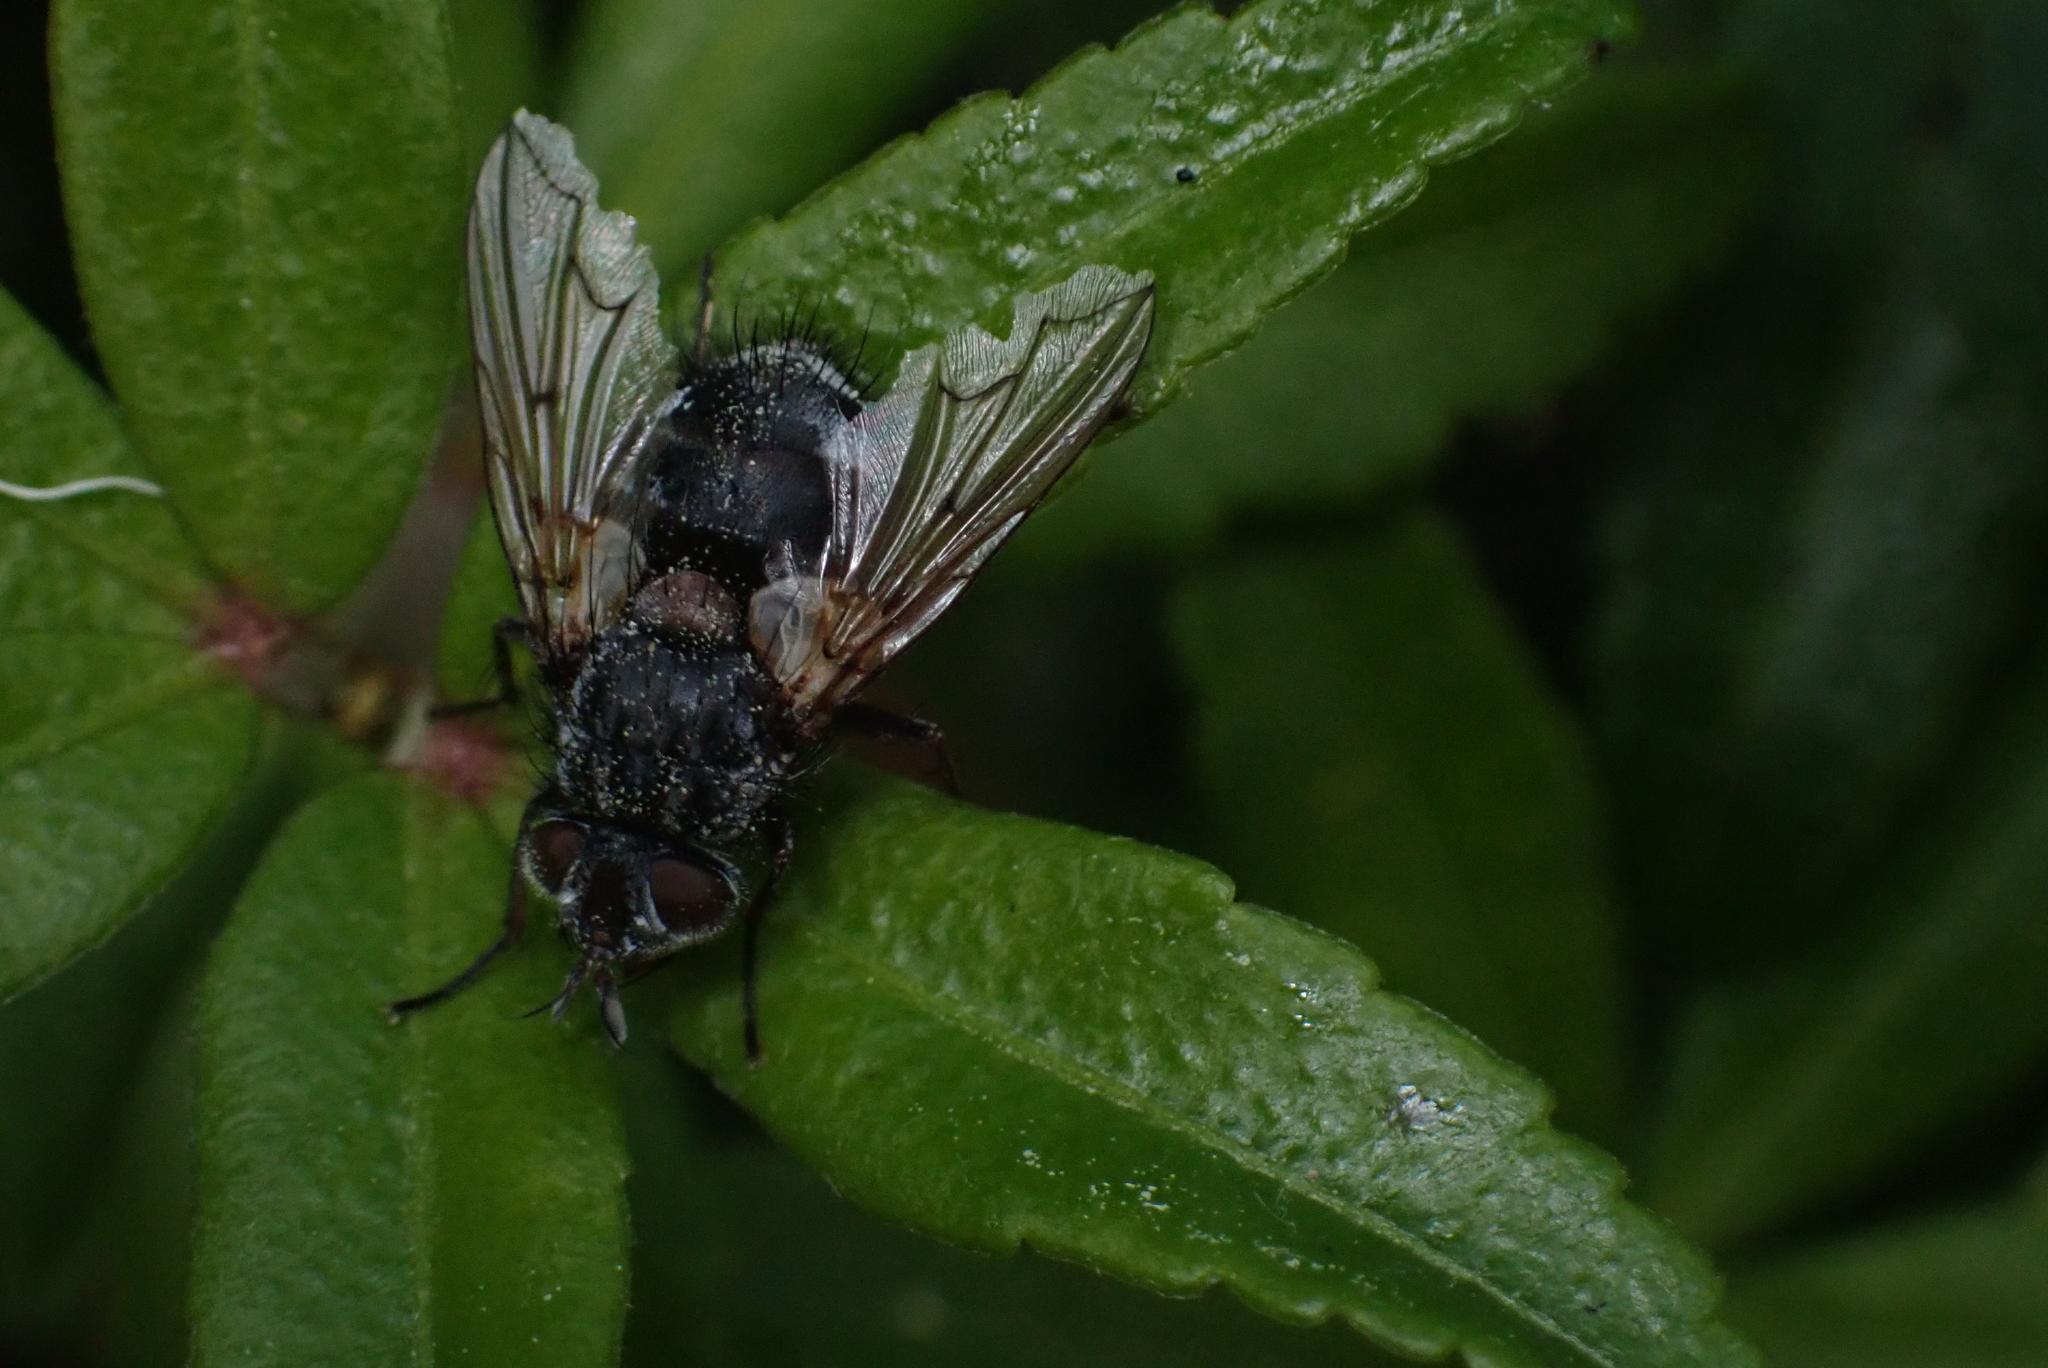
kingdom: Animalia
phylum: Arthropoda
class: Insecta
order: Diptera
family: Tachinidae
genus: Bothria
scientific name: Bothria subalpina
